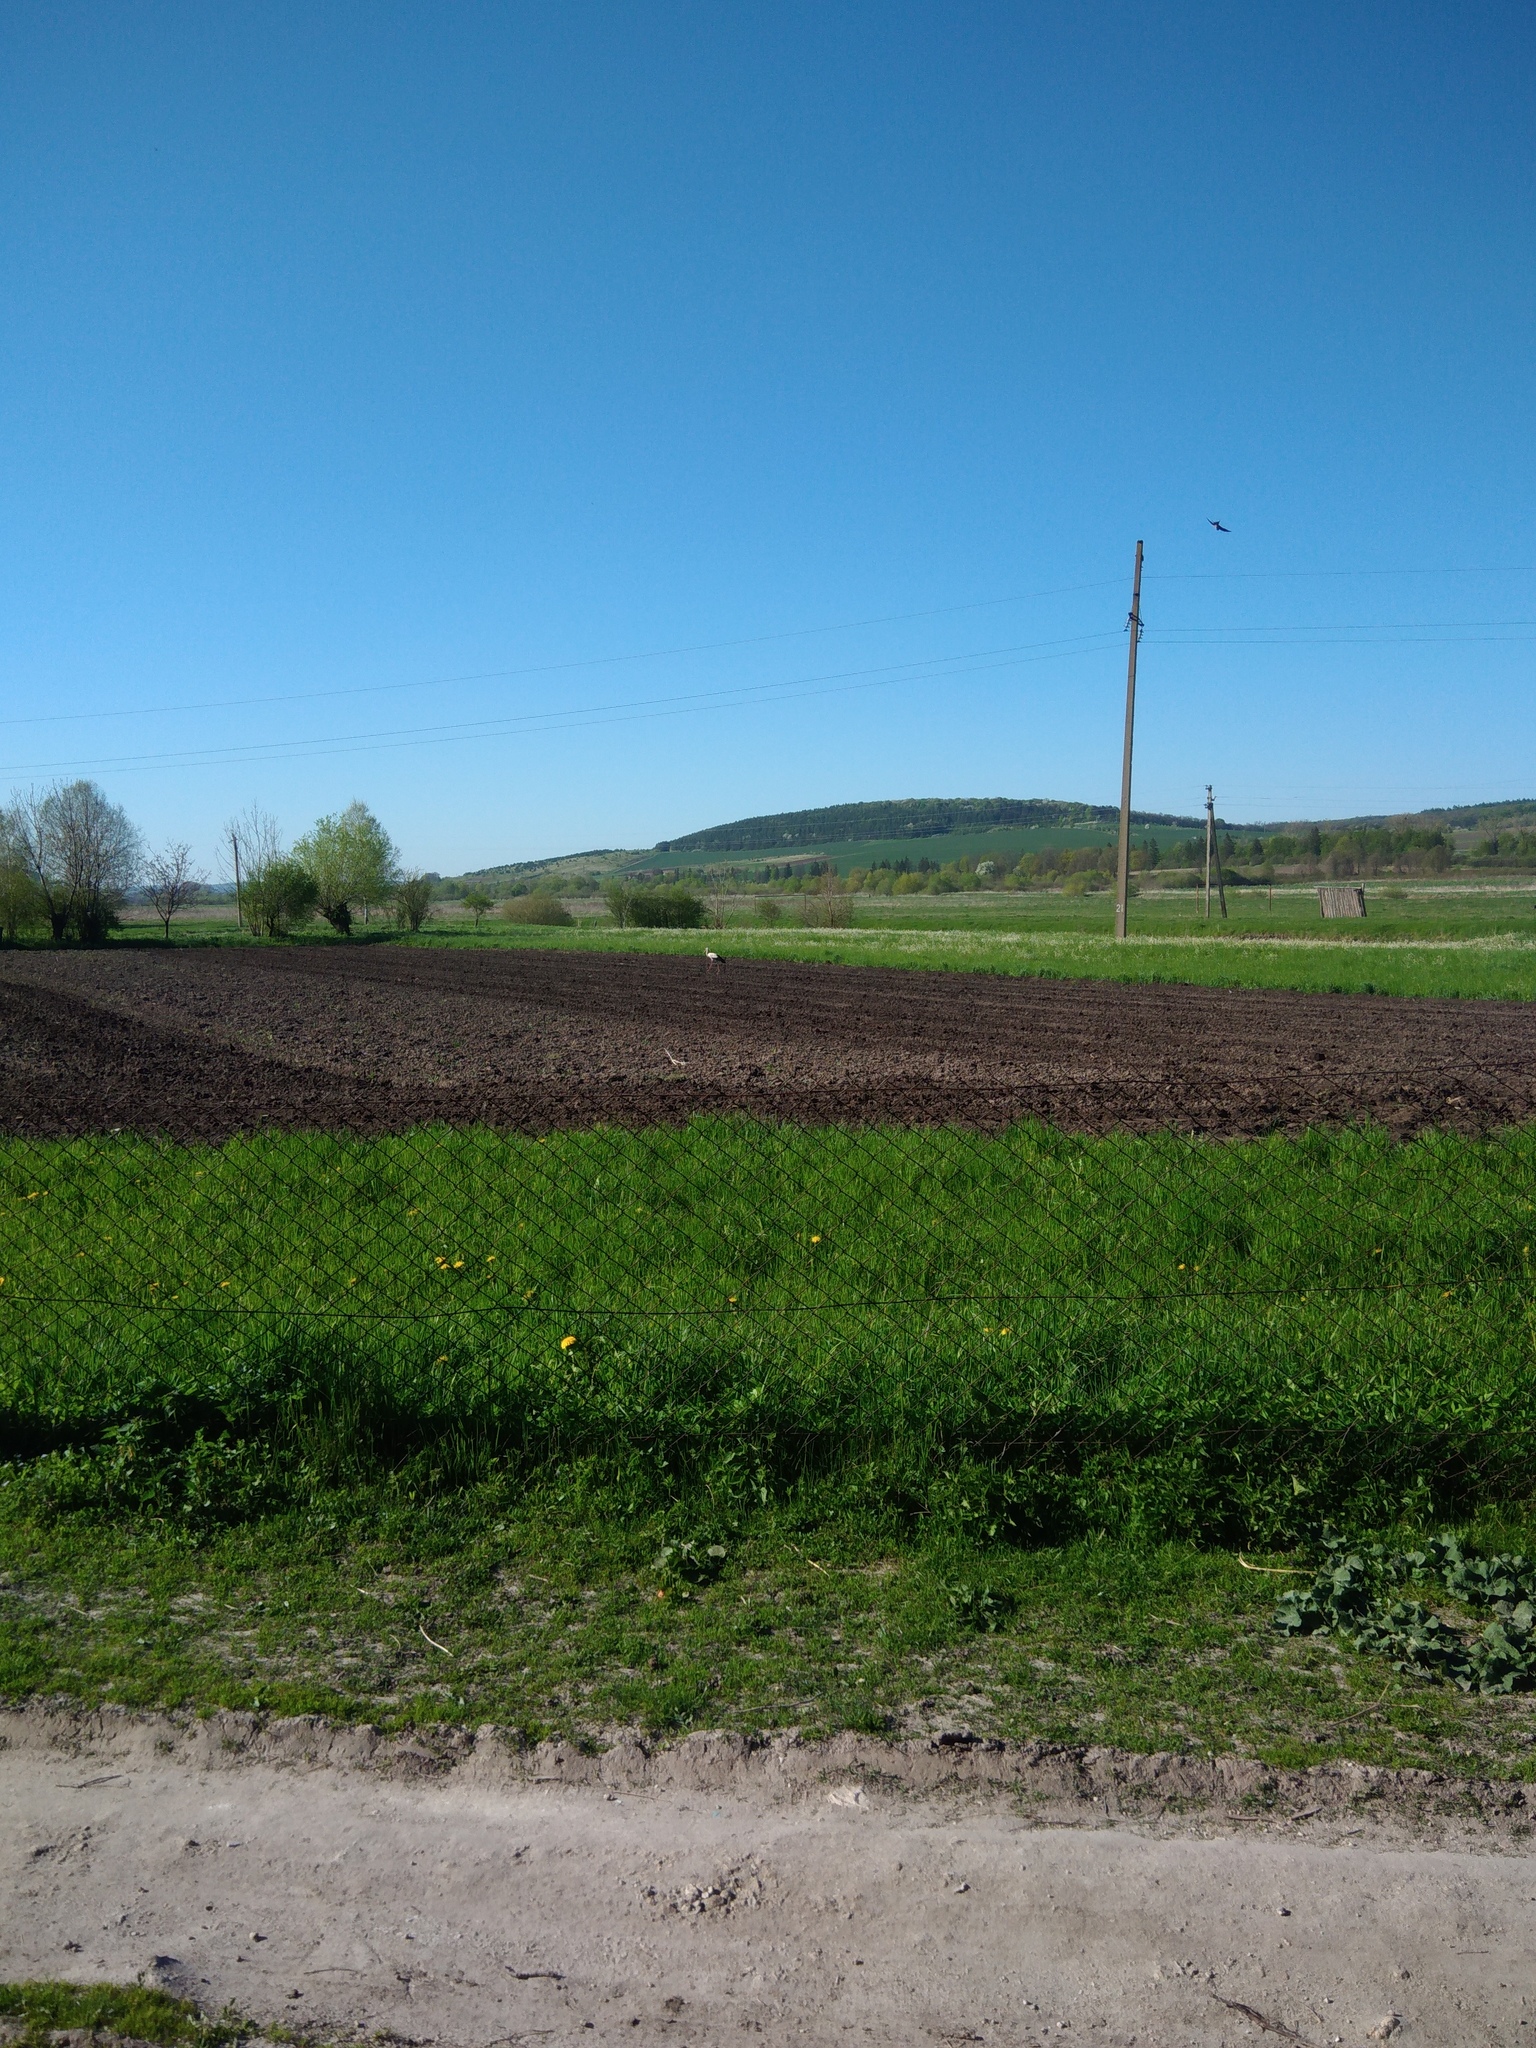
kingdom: Animalia
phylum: Chordata
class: Aves
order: Ciconiiformes
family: Ciconiidae
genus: Ciconia
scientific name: Ciconia ciconia
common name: White stork
